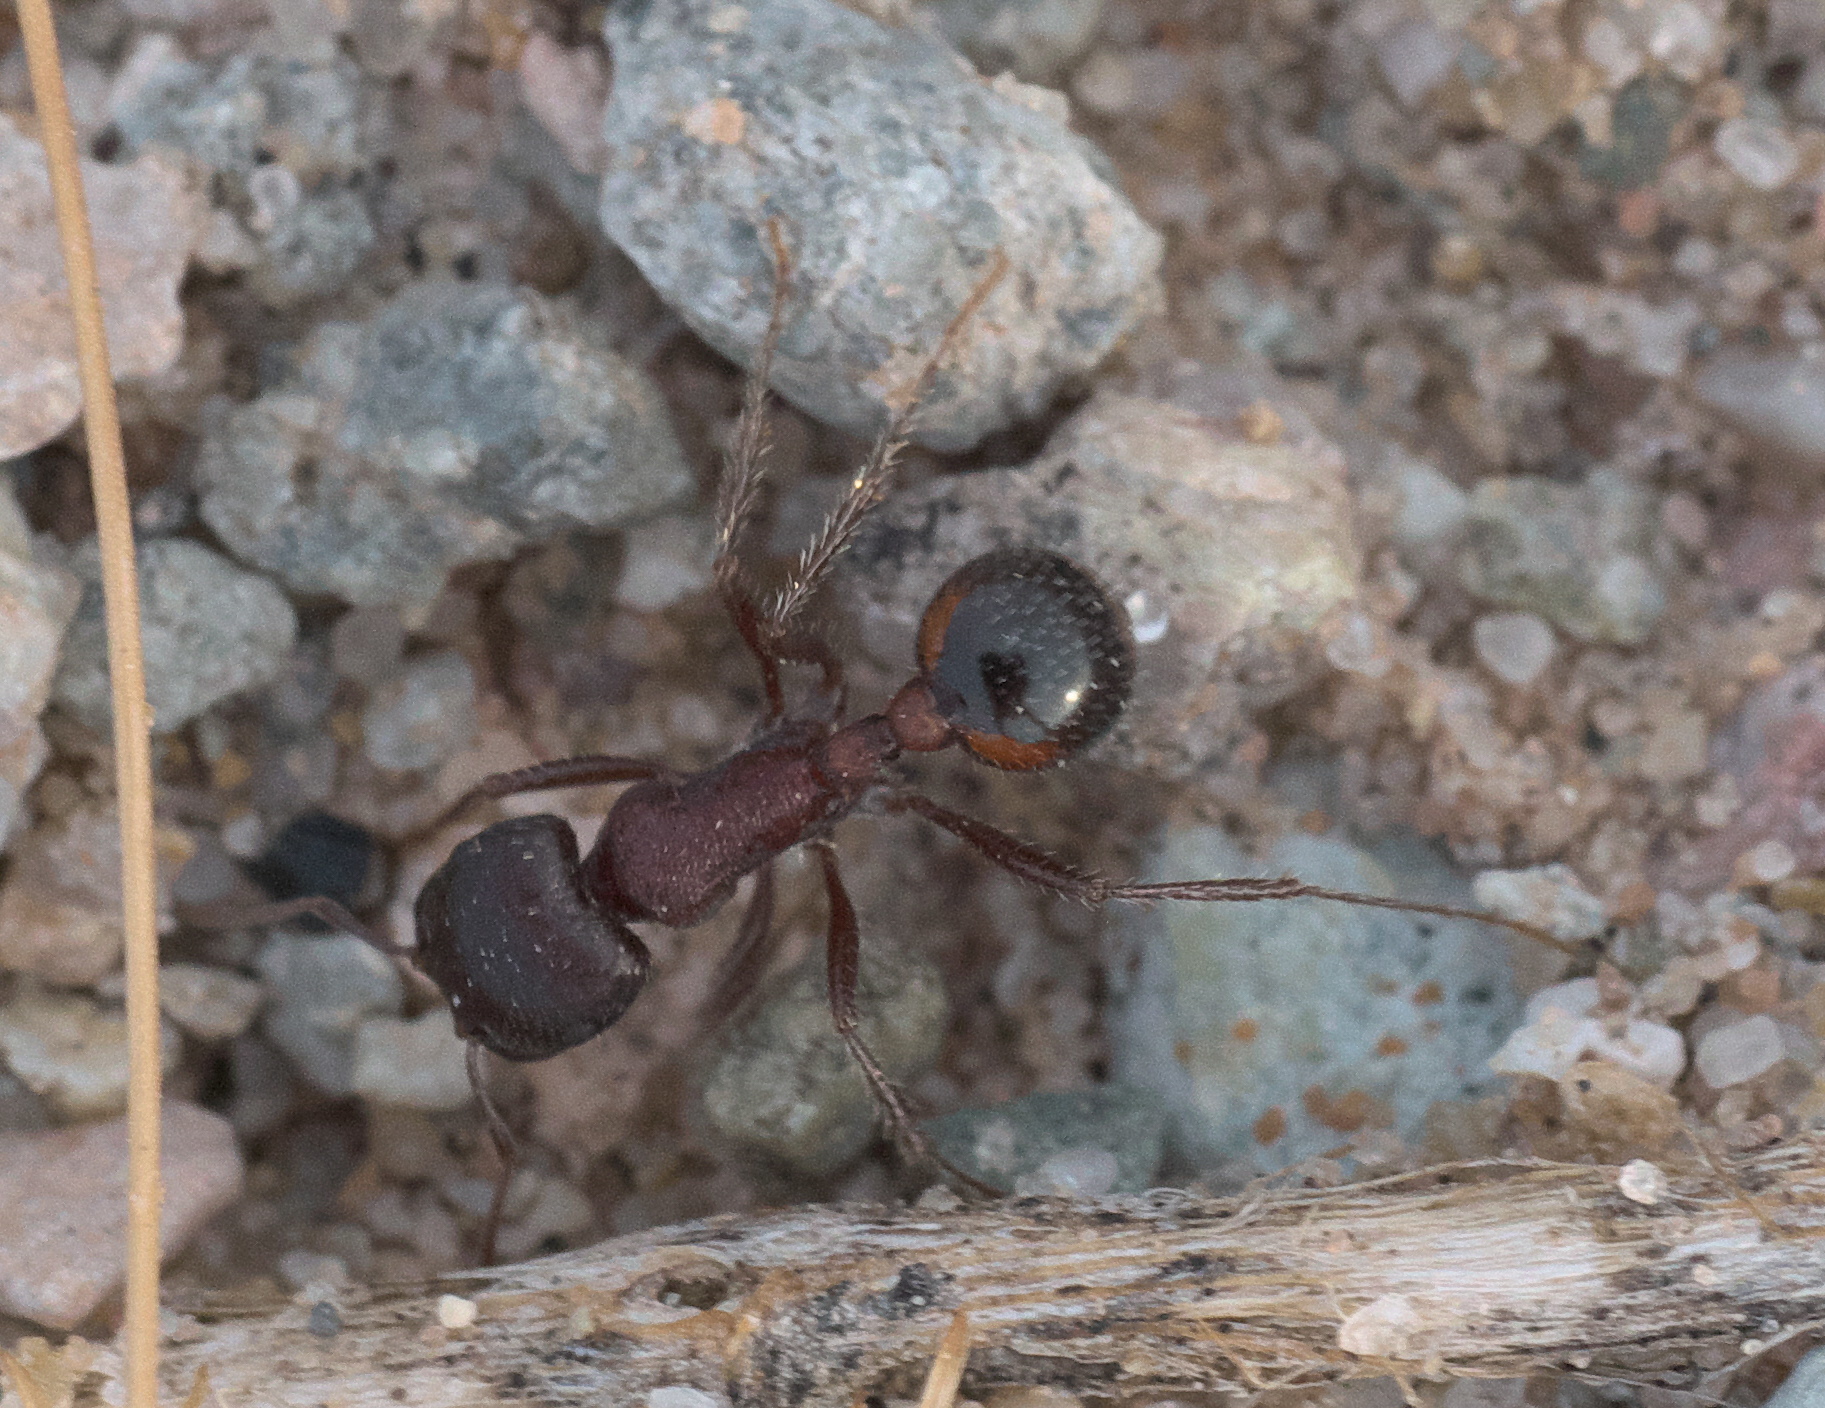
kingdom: Animalia
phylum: Arthropoda
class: Insecta
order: Hymenoptera
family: Formicidae
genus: Pogonomyrmex
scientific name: Pogonomyrmex rugosus
